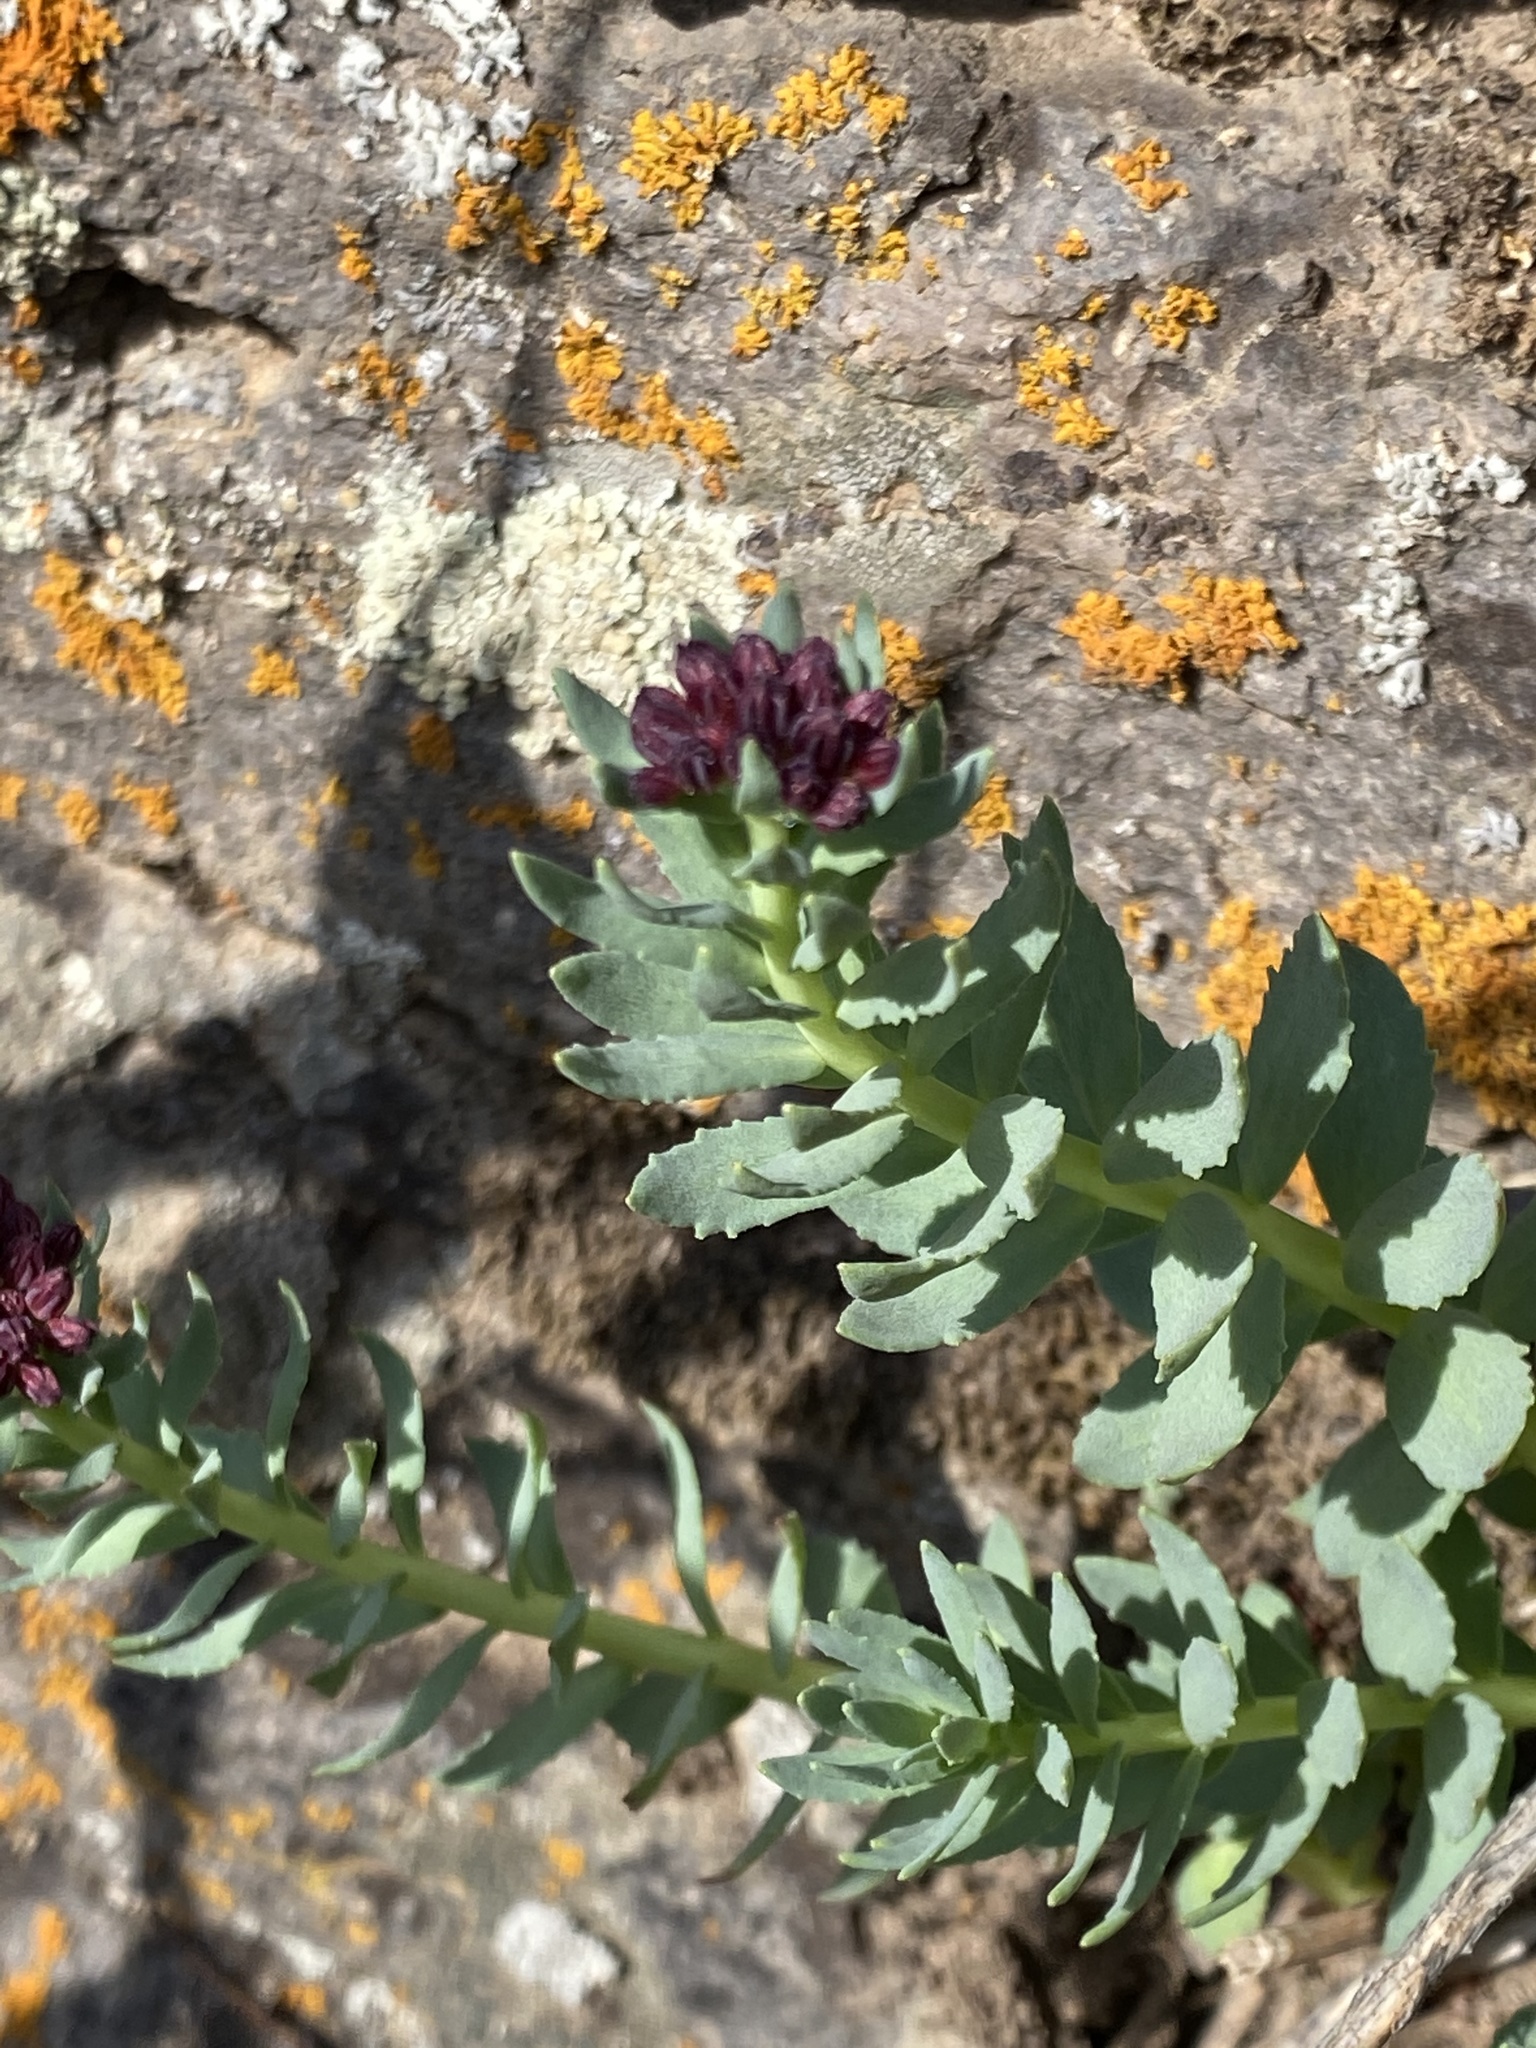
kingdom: Plantae
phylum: Tracheophyta
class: Magnoliopsida
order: Saxifragales
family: Crassulaceae
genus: Rhodiola
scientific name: Rhodiola integrifolia
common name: Western roseroot
